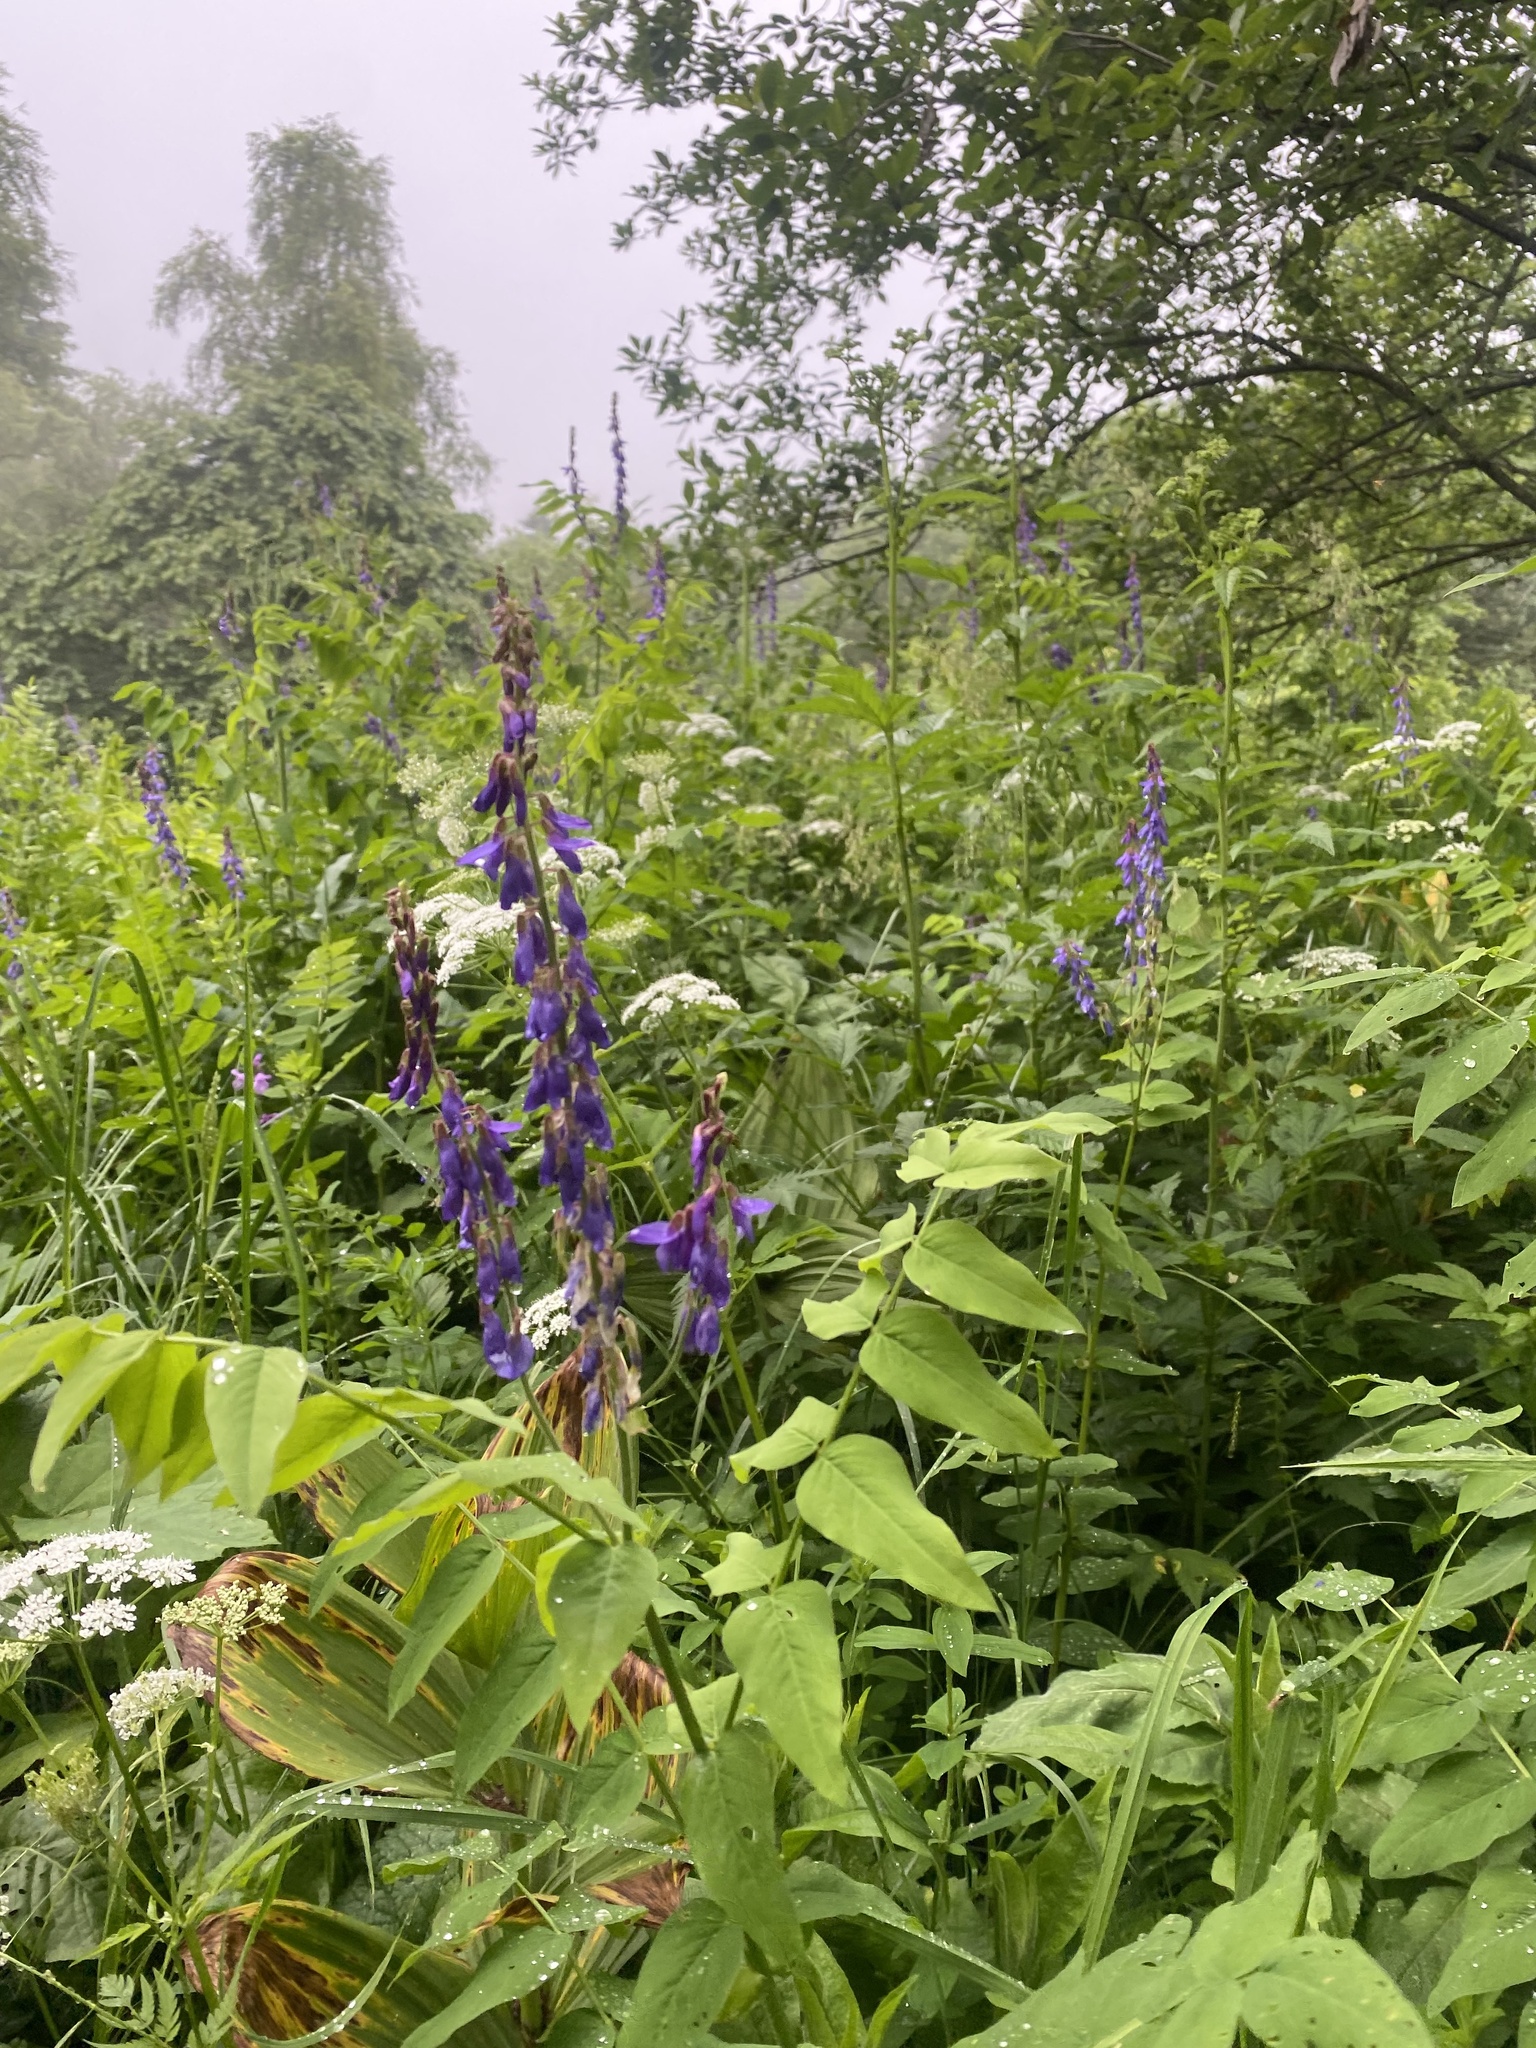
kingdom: Plantae
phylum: Tracheophyta
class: Magnoliopsida
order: Fabales
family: Fabaceae
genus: Galega
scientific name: Galega orientalis
